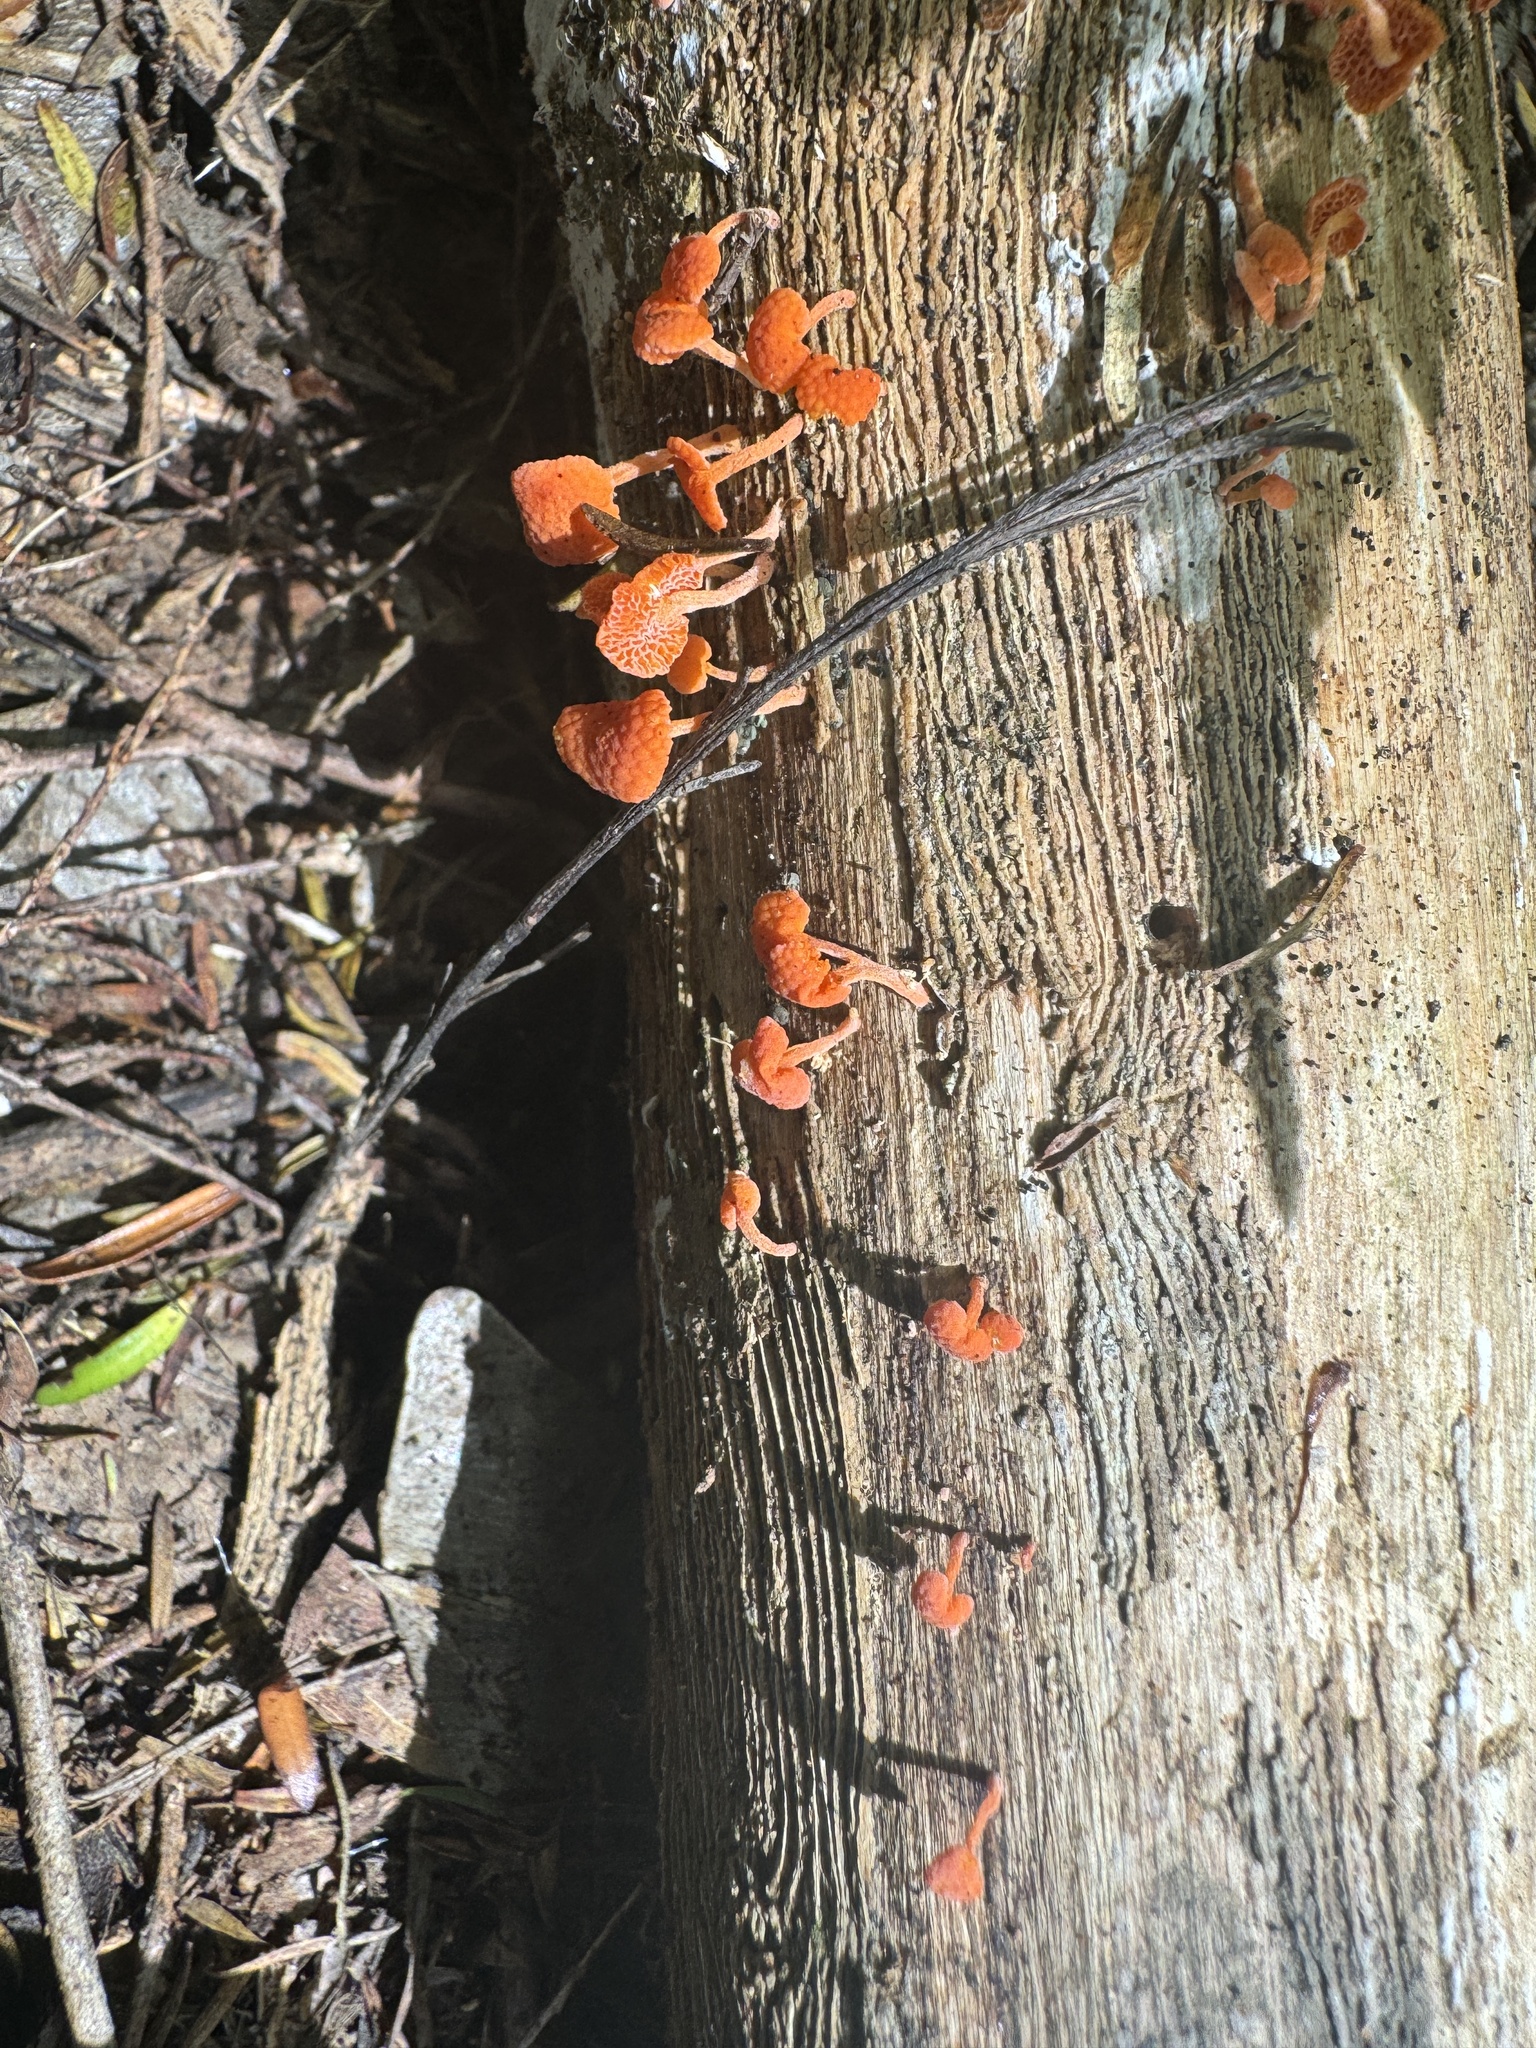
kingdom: Fungi
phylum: Basidiomycota
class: Agaricomycetes
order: Agaricales
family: Mycenaceae
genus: Favolaschia
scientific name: Favolaschia claudopus
